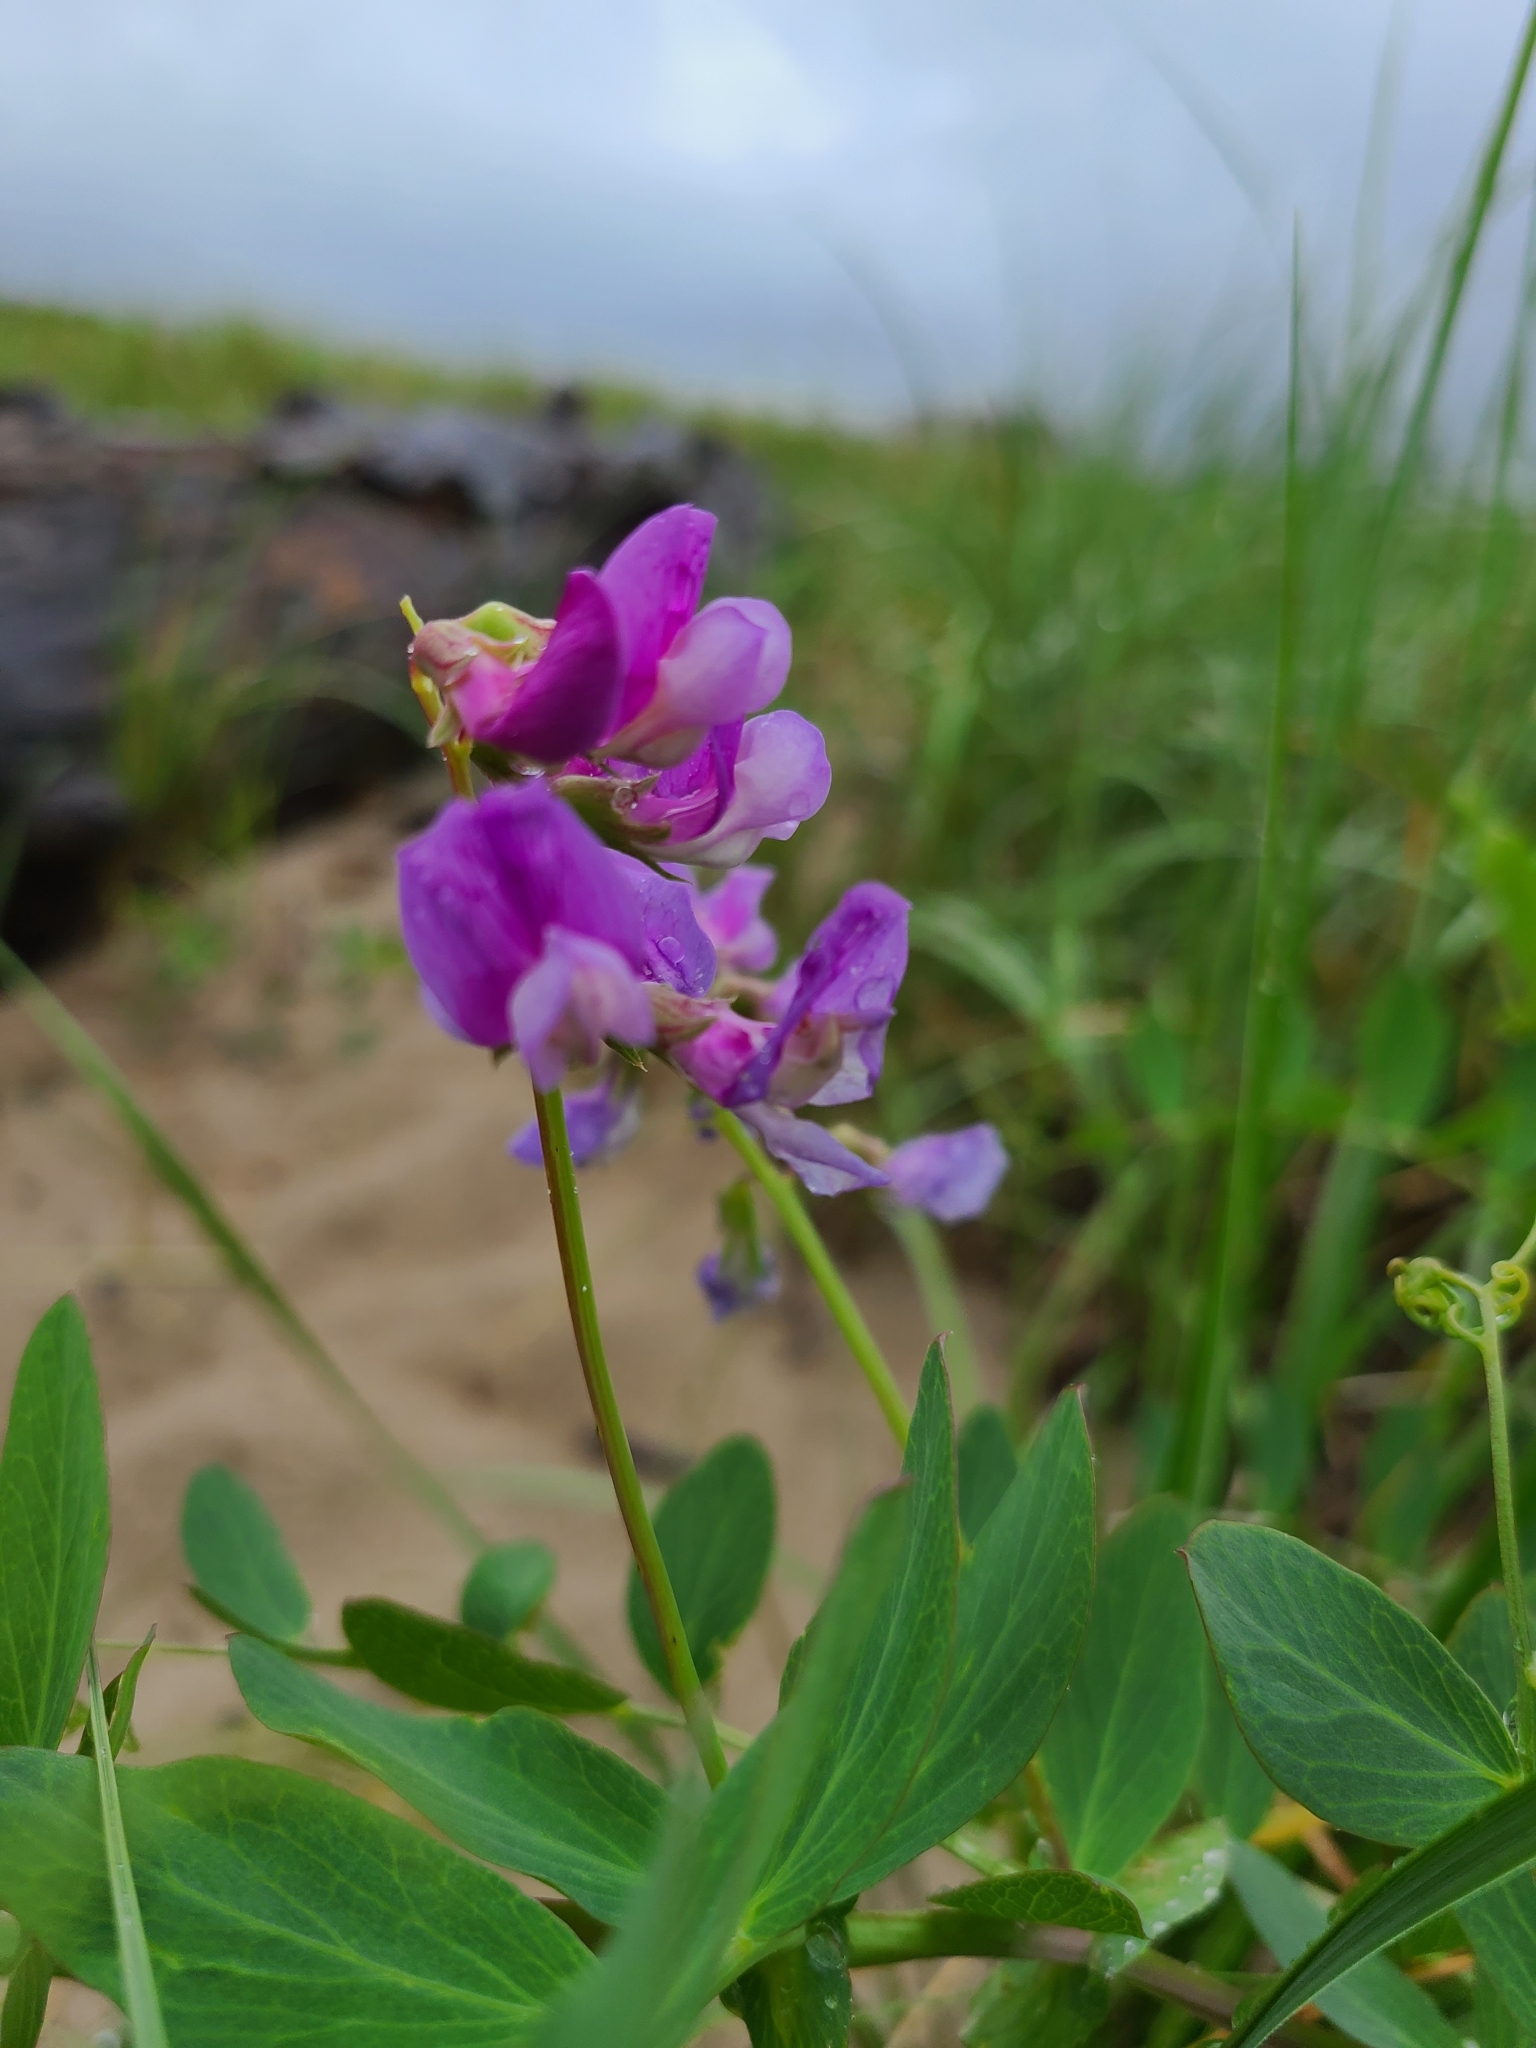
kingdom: Plantae
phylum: Tracheophyta
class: Magnoliopsida
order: Fabales
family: Fabaceae
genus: Lathyrus
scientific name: Lathyrus japonicus
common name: Sea pea
